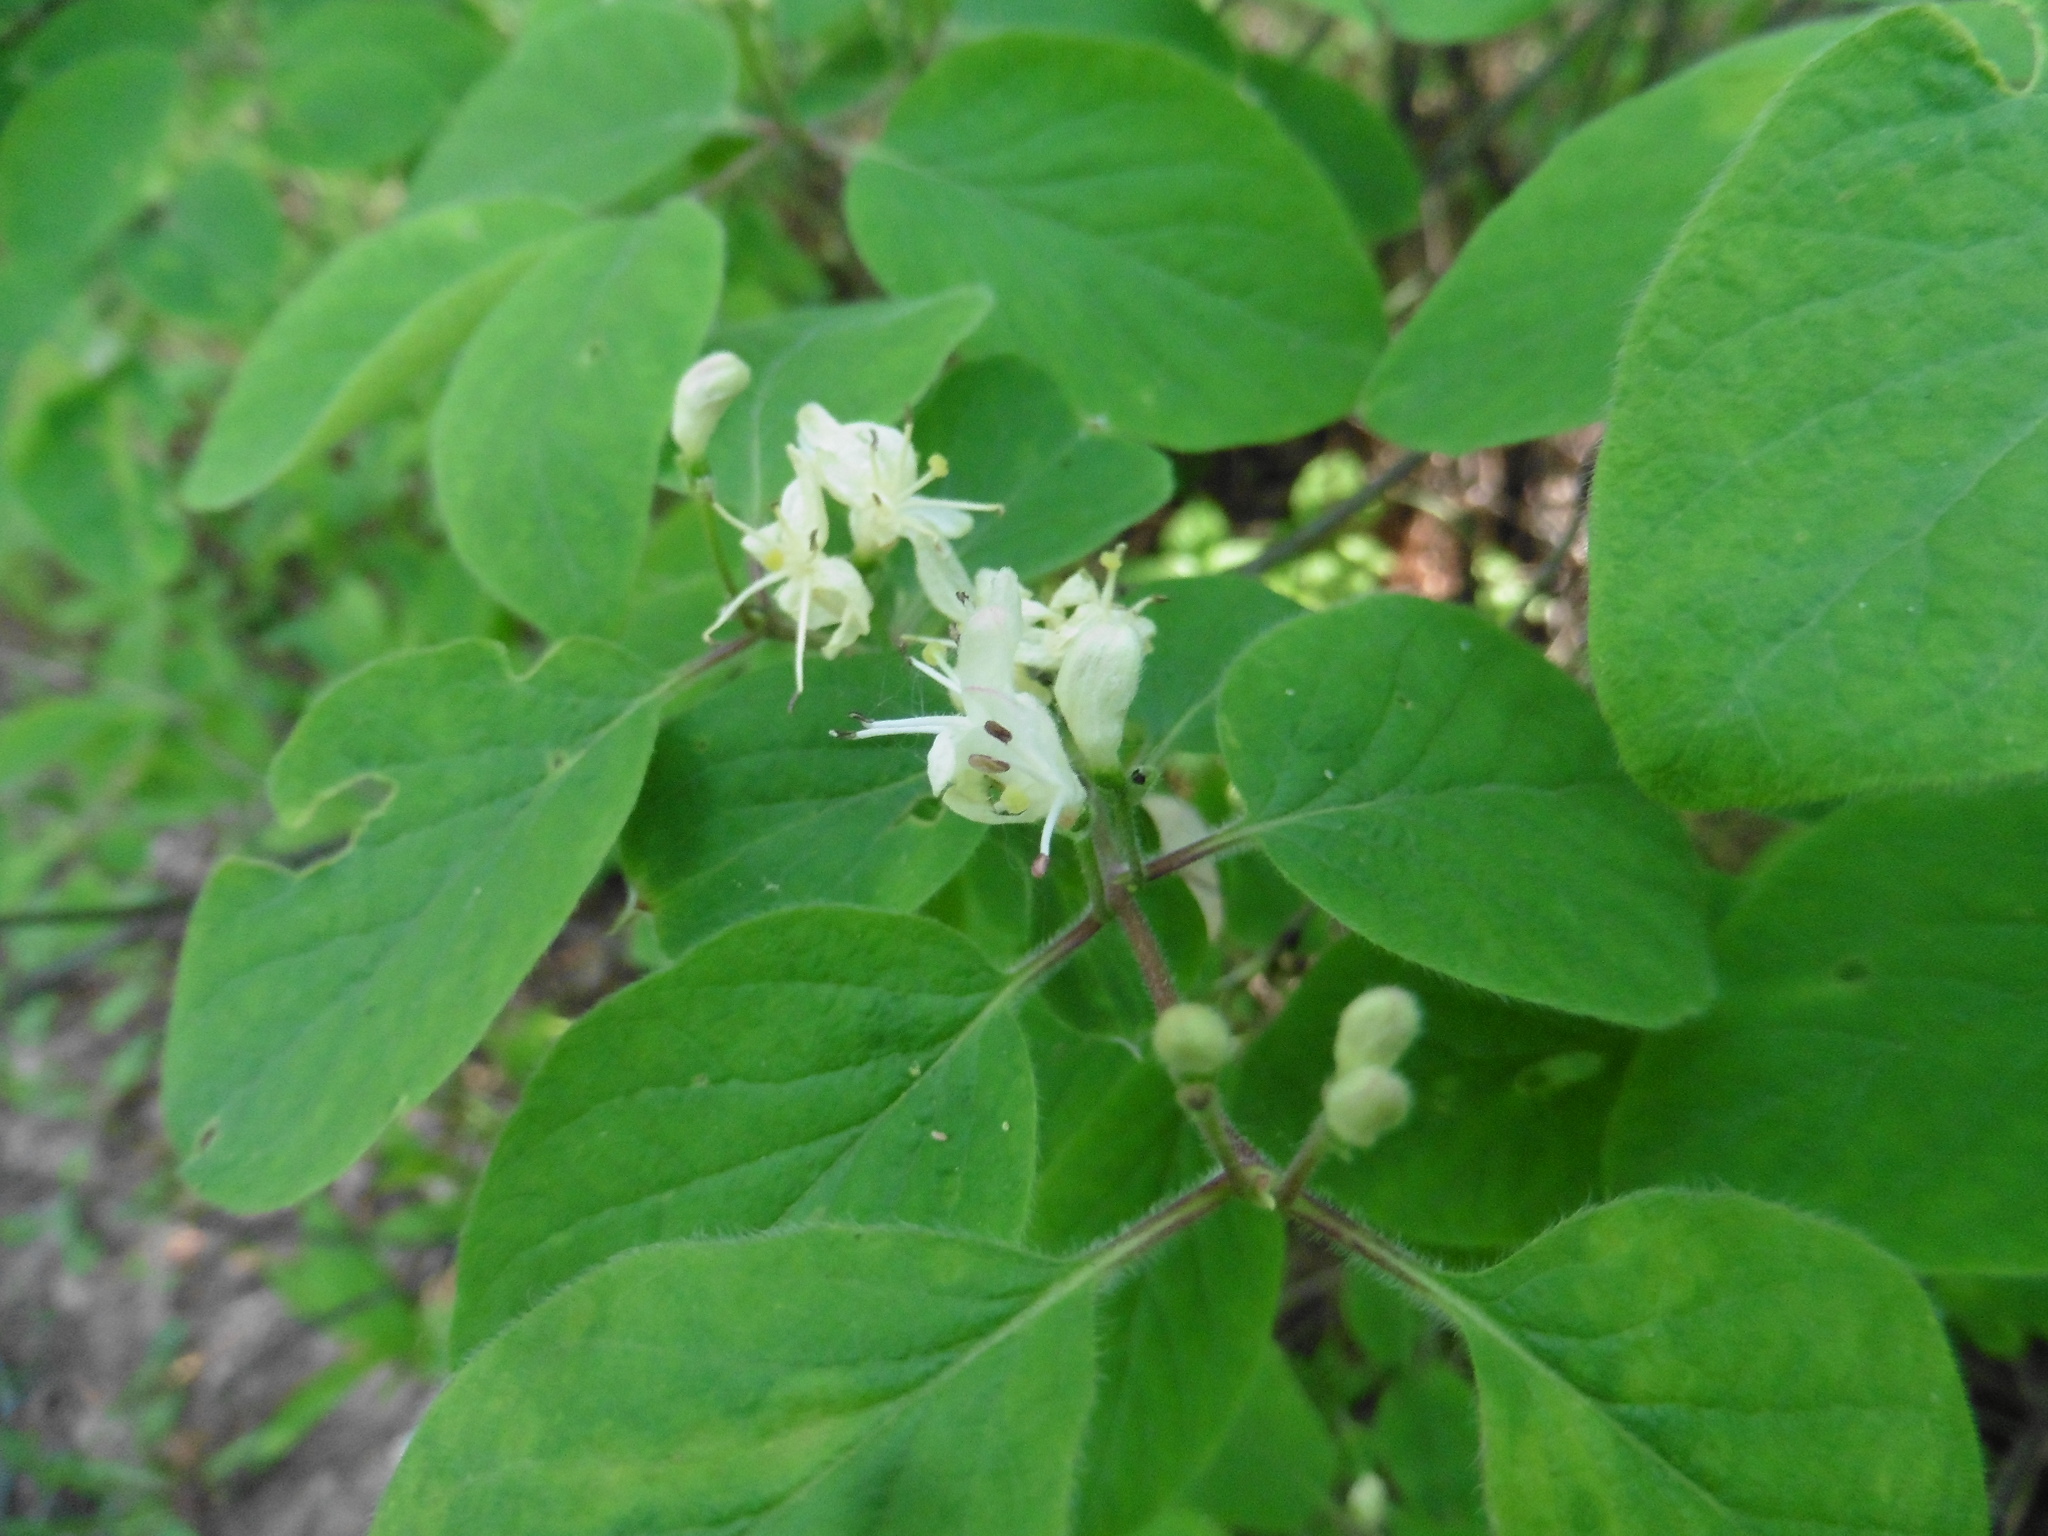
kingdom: Plantae
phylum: Tracheophyta
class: Magnoliopsida
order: Dipsacales
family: Caprifoliaceae
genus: Lonicera
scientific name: Lonicera xylosteum
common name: Fly honeysuckle
